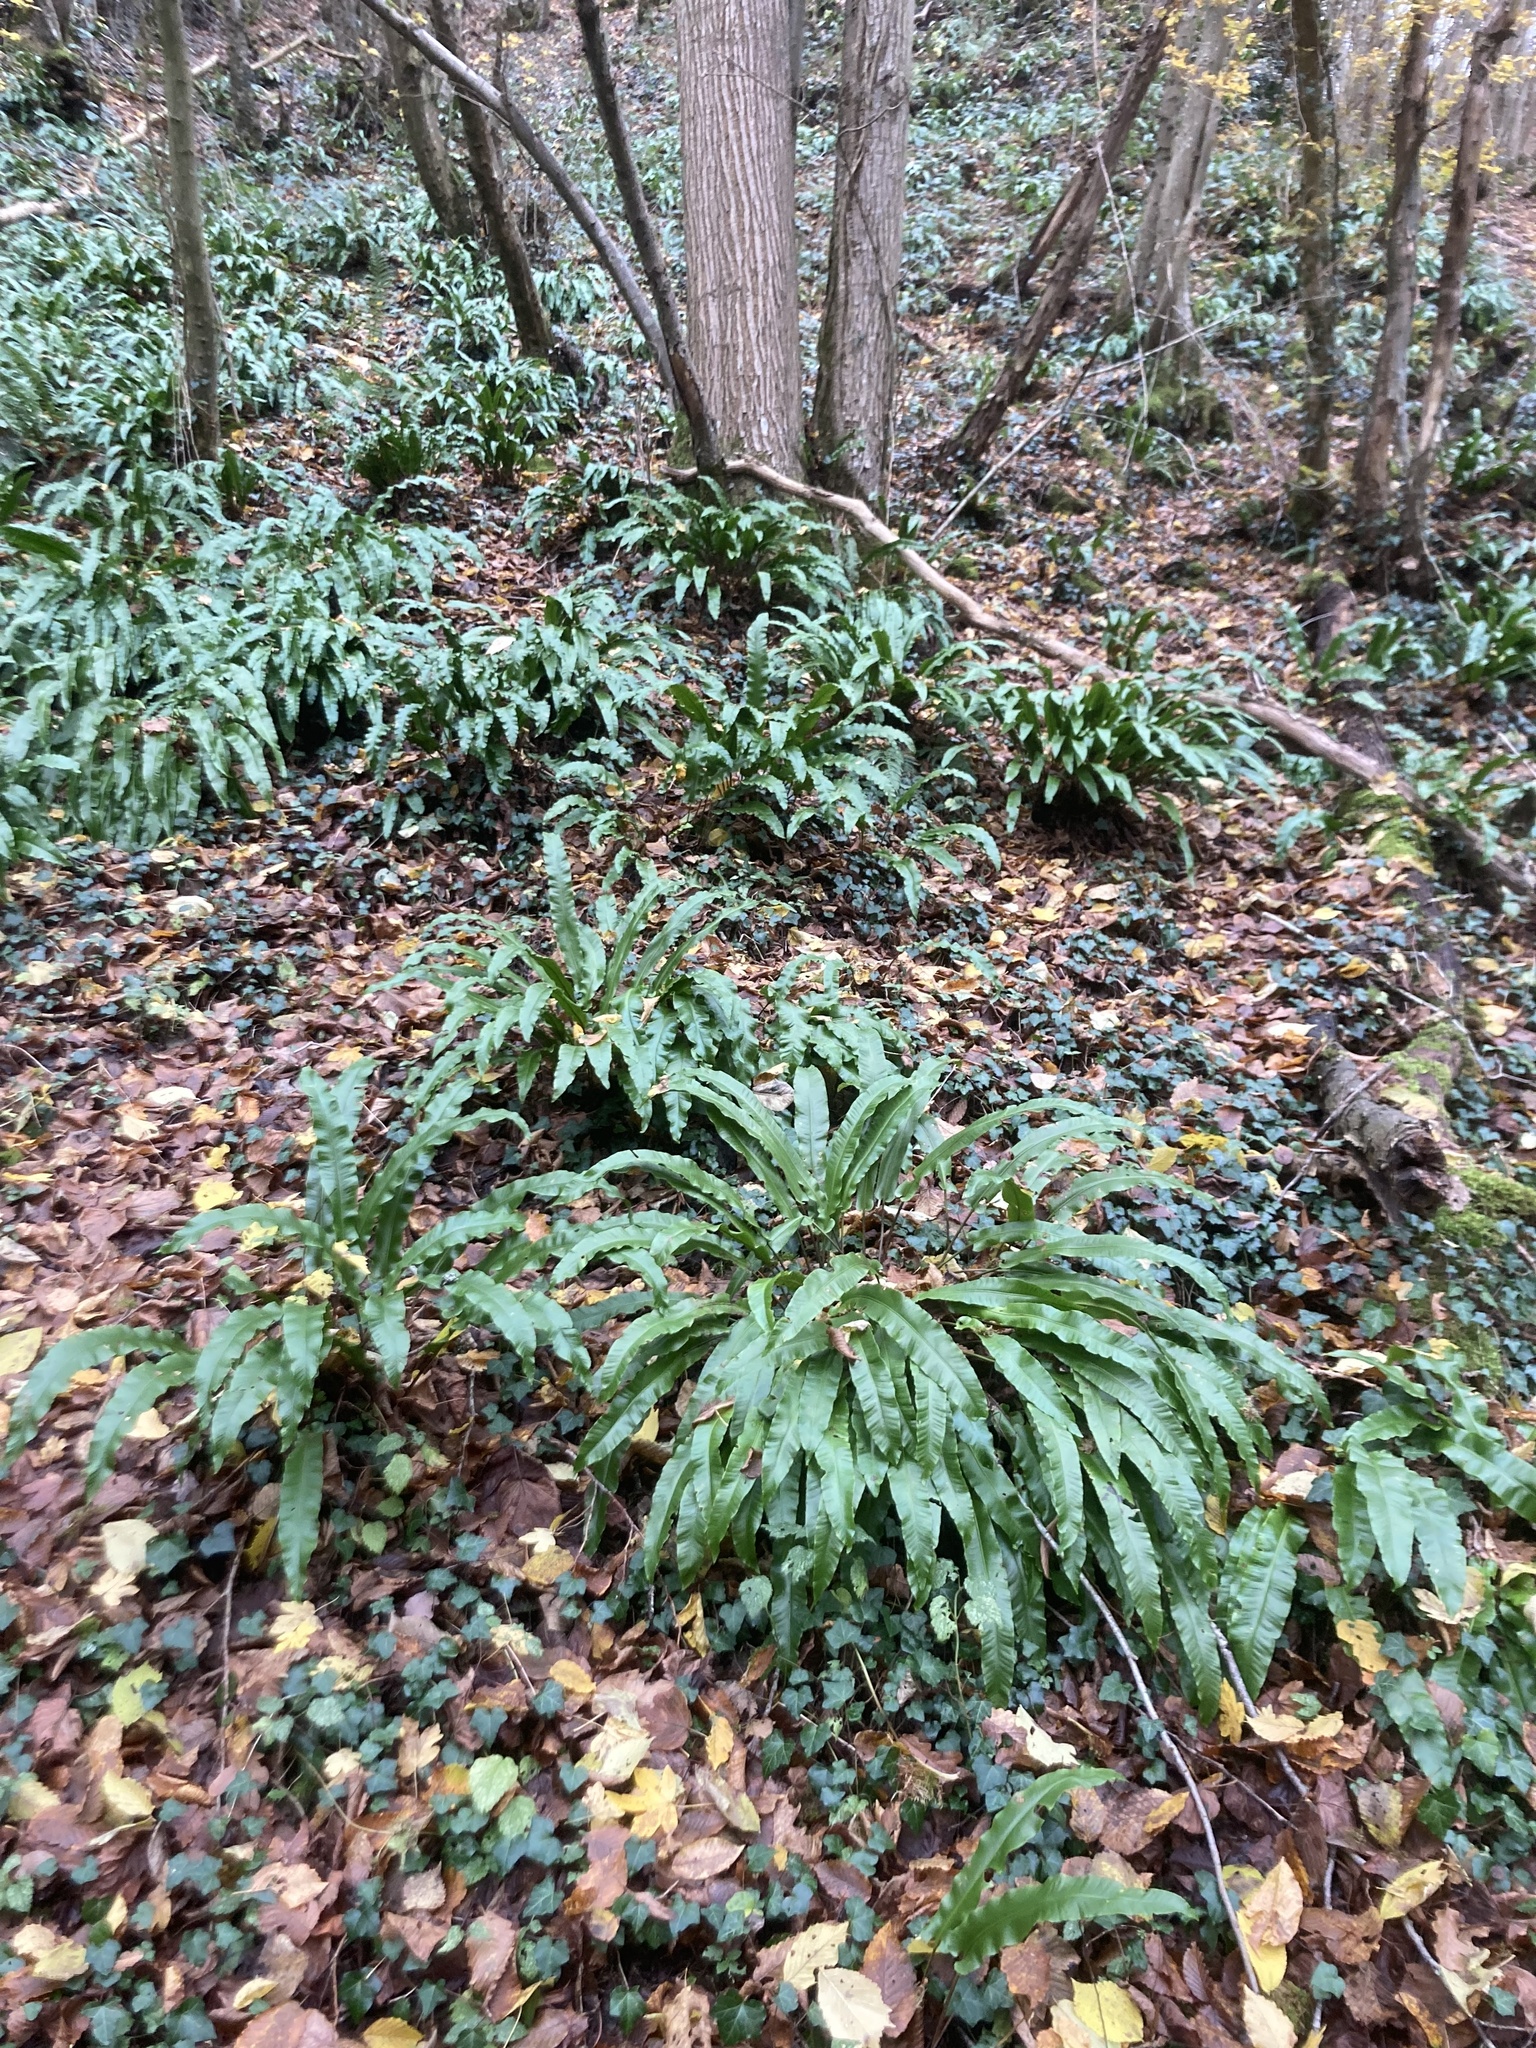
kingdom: Plantae
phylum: Tracheophyta
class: Polypodiopsida
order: Polypodiales
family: Aspleniaceae
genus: Asplenium
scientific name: Asplenium scolopendrium
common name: Hart's-tongue fern
